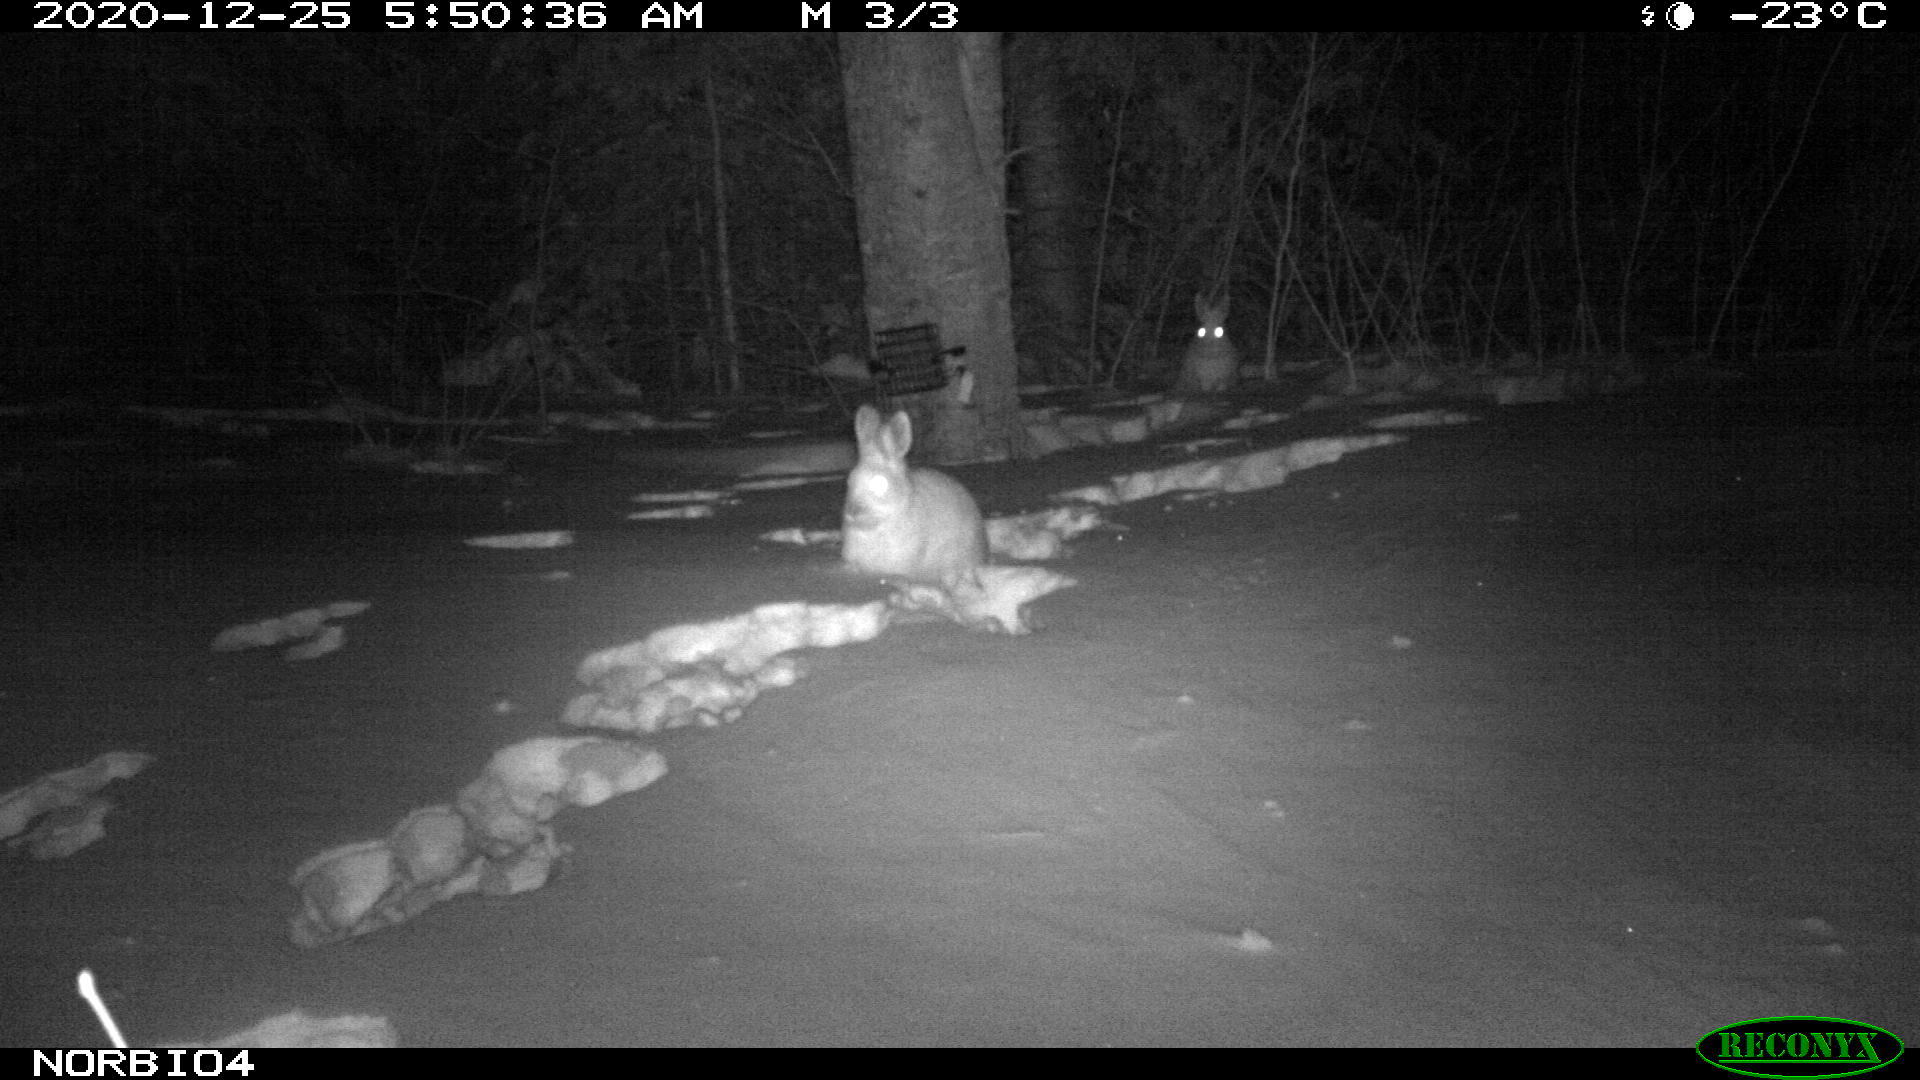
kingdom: Animalia
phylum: Chordata
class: Mammalia
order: Lagomorpha
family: Leporidae
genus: Lepus
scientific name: Lepus americanus
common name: Snowshoe hare
